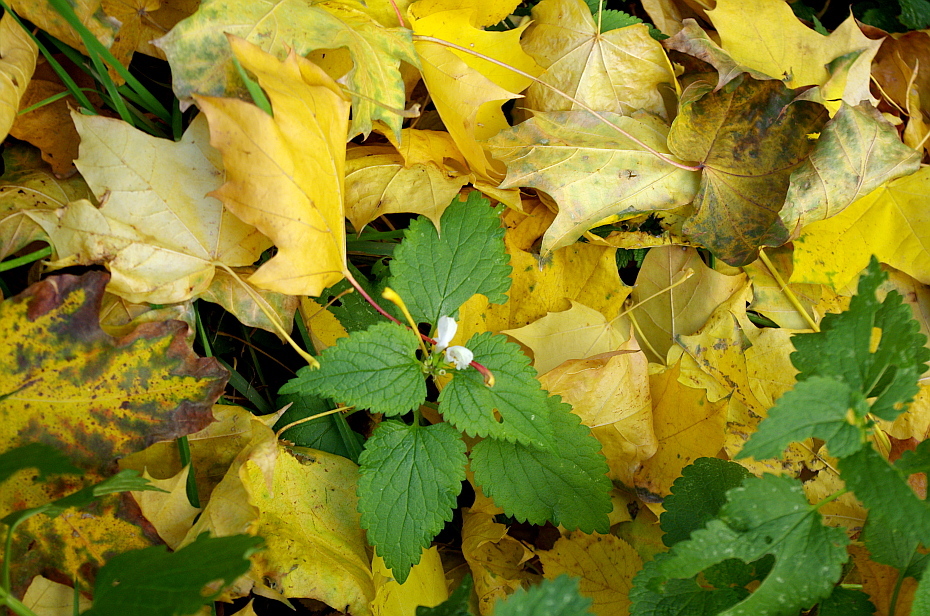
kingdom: Plantae
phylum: Tracheophyta
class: Magnoliopsida
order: Lamiales
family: Lamiaceae
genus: Lamium
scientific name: Lamium album
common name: White dead-nettle
